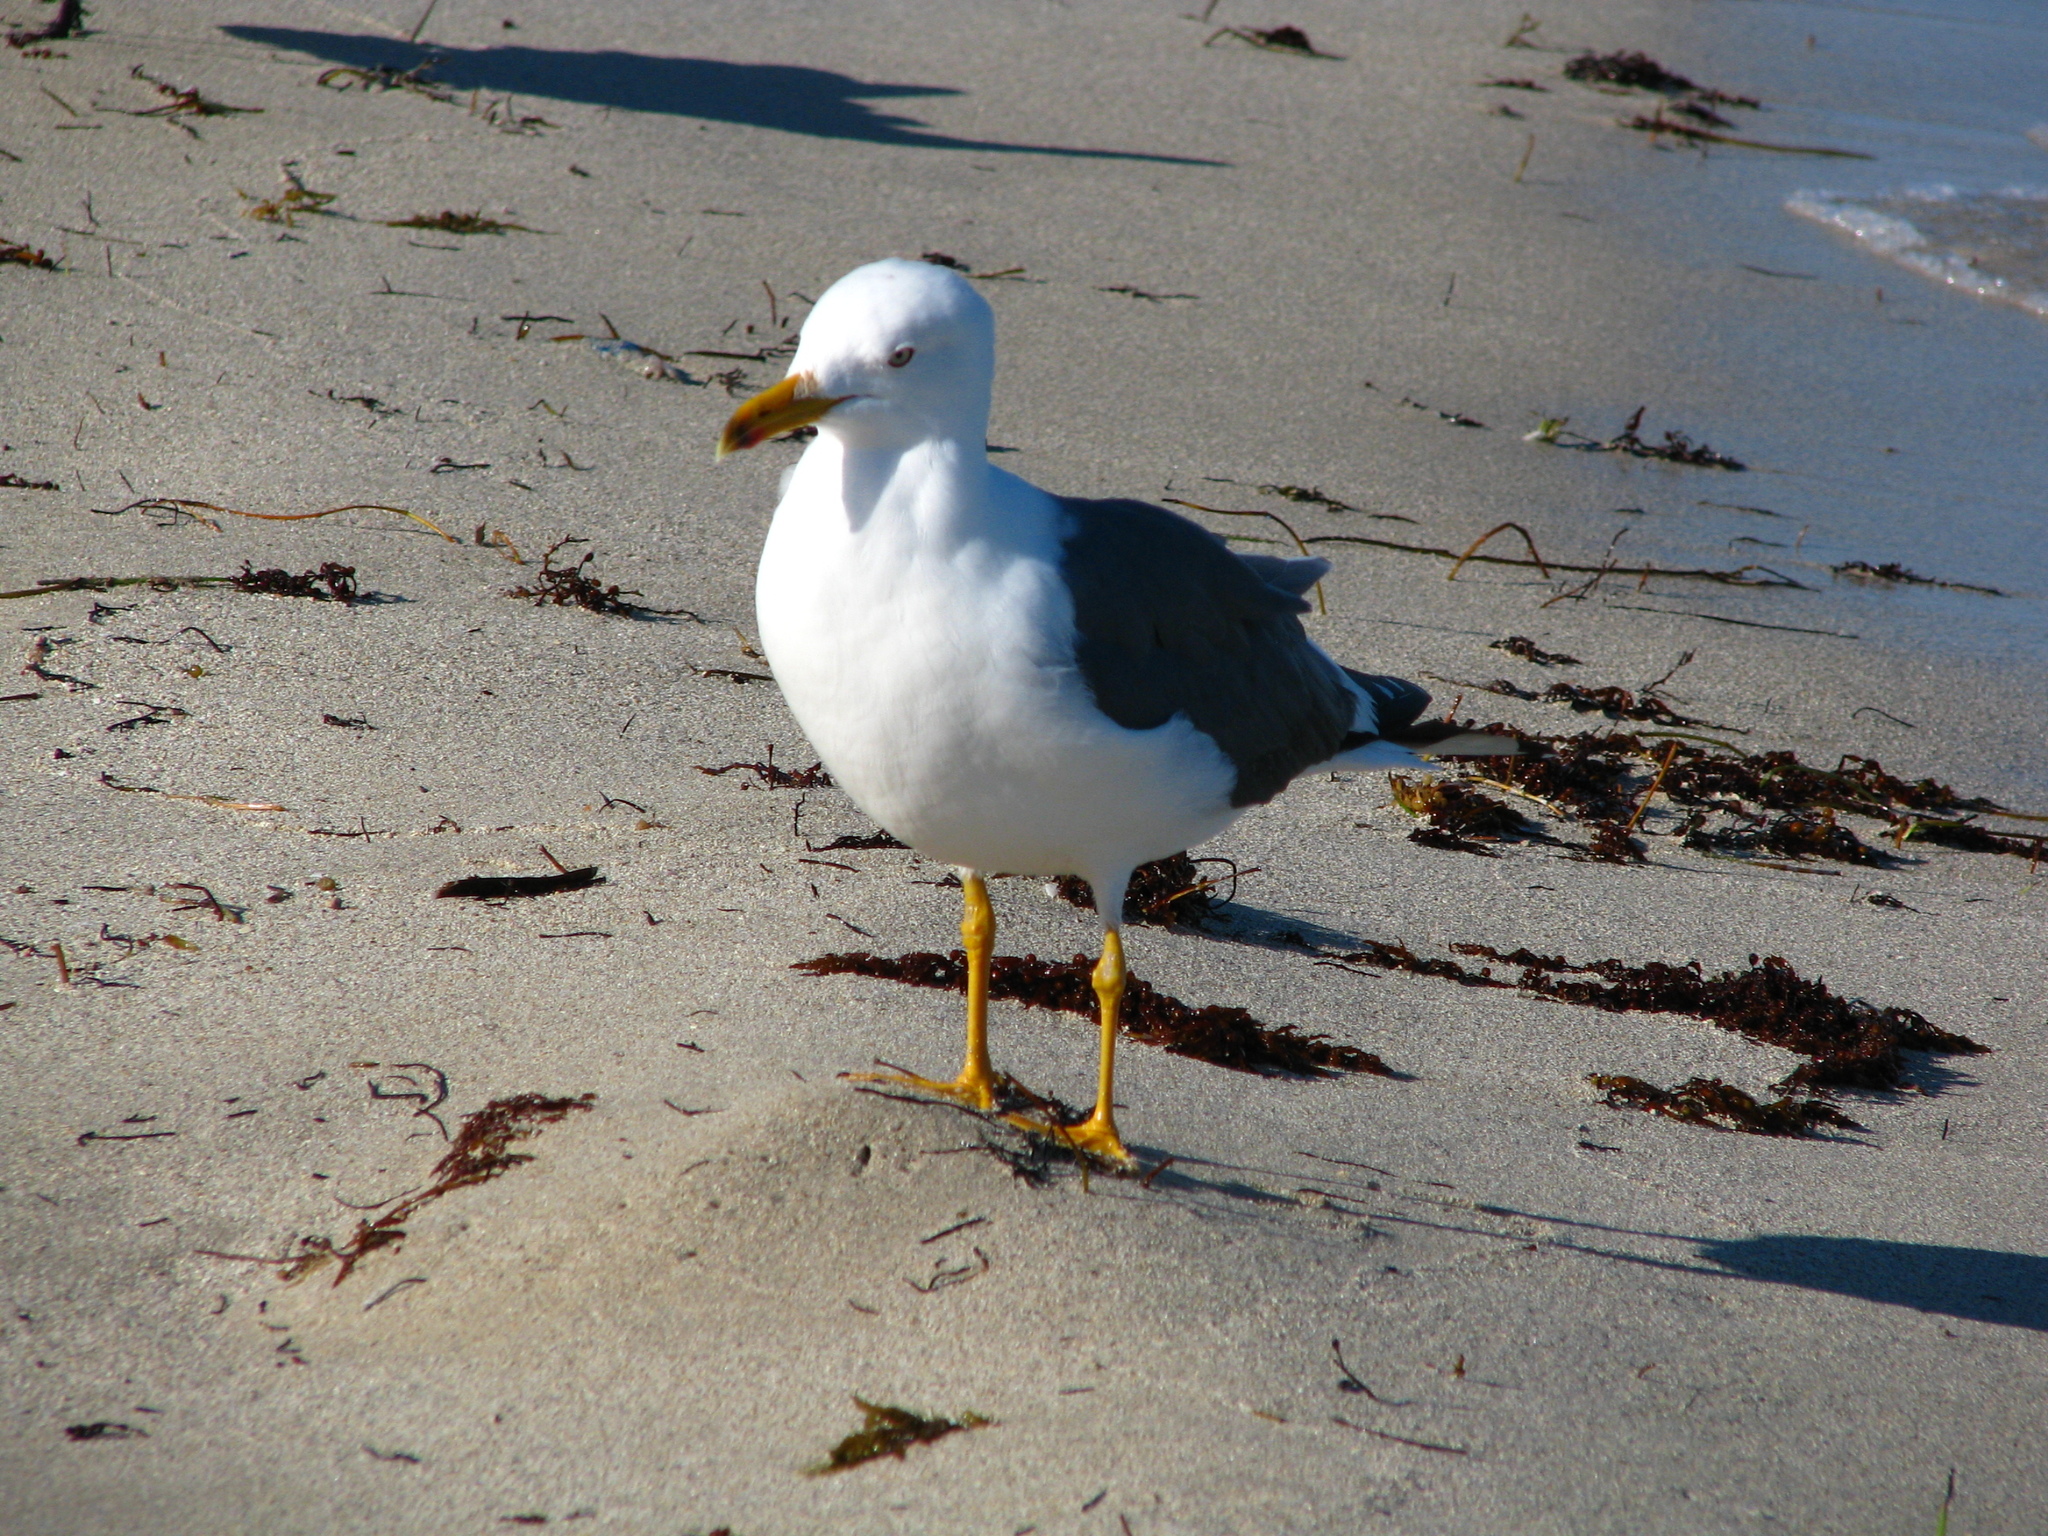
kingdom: Animalia
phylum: Chordata
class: Aves
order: Charadriiformes
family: Laridae
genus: Larus
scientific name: Larus fuscus
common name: Lesser black-backed gull
